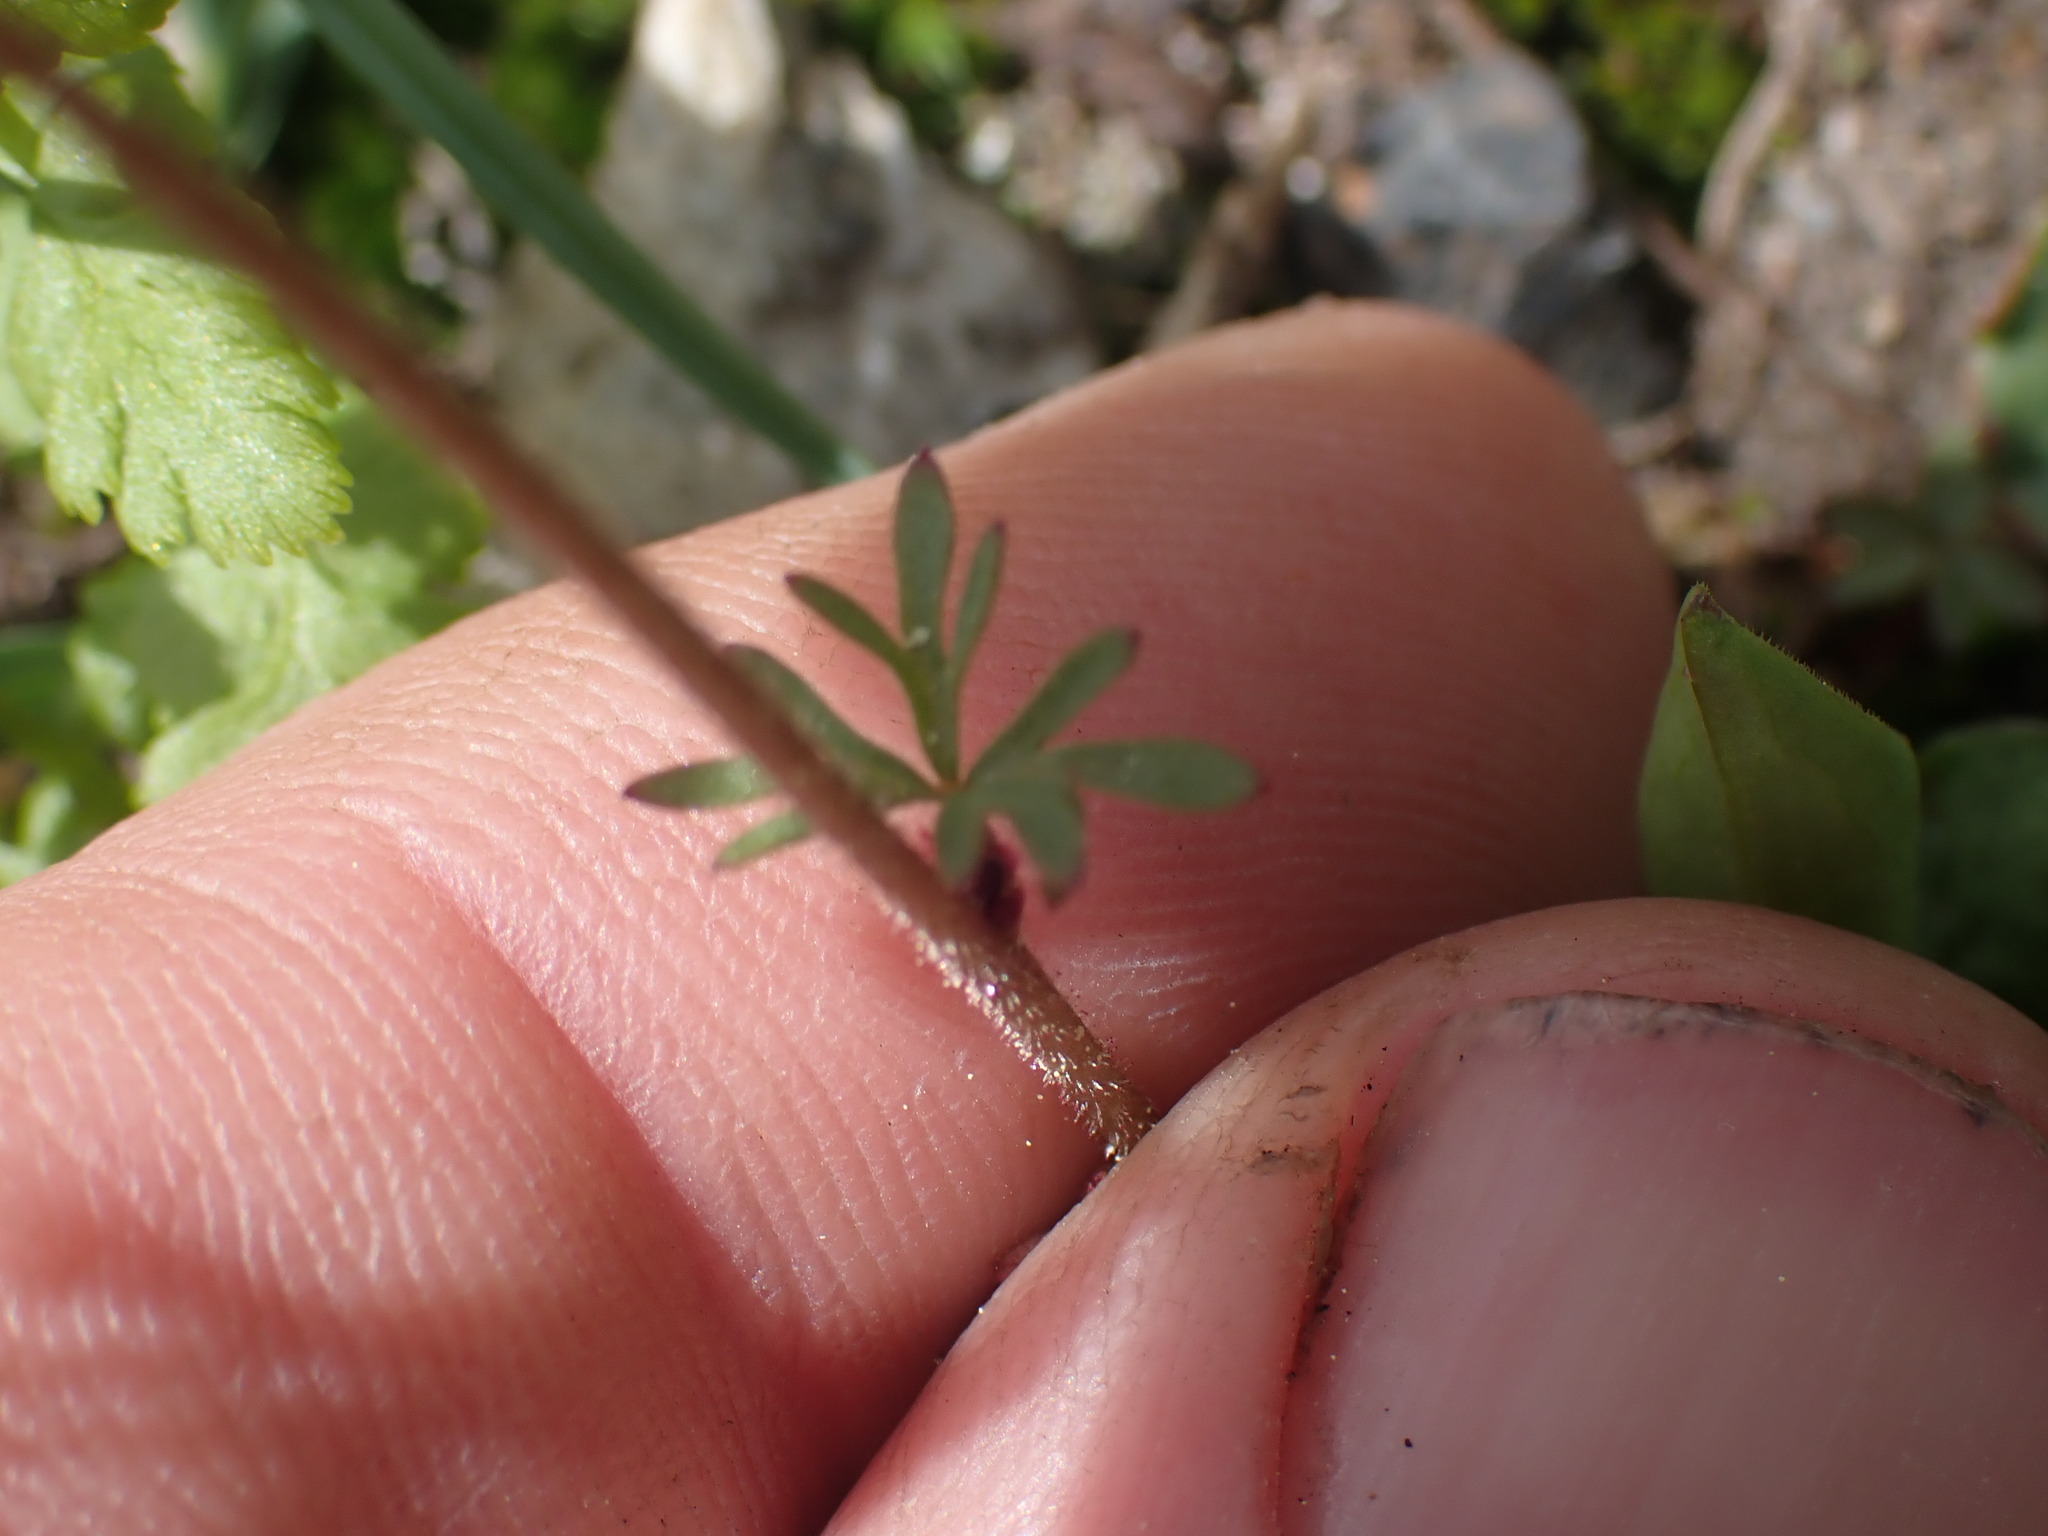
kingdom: Plantae
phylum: Tracheophyta
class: Magnoliopsida
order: Saxifragales
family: Saxifragaceae
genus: Lithophragma
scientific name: Lithophragma glabrum
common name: Bulbous prairie-star
